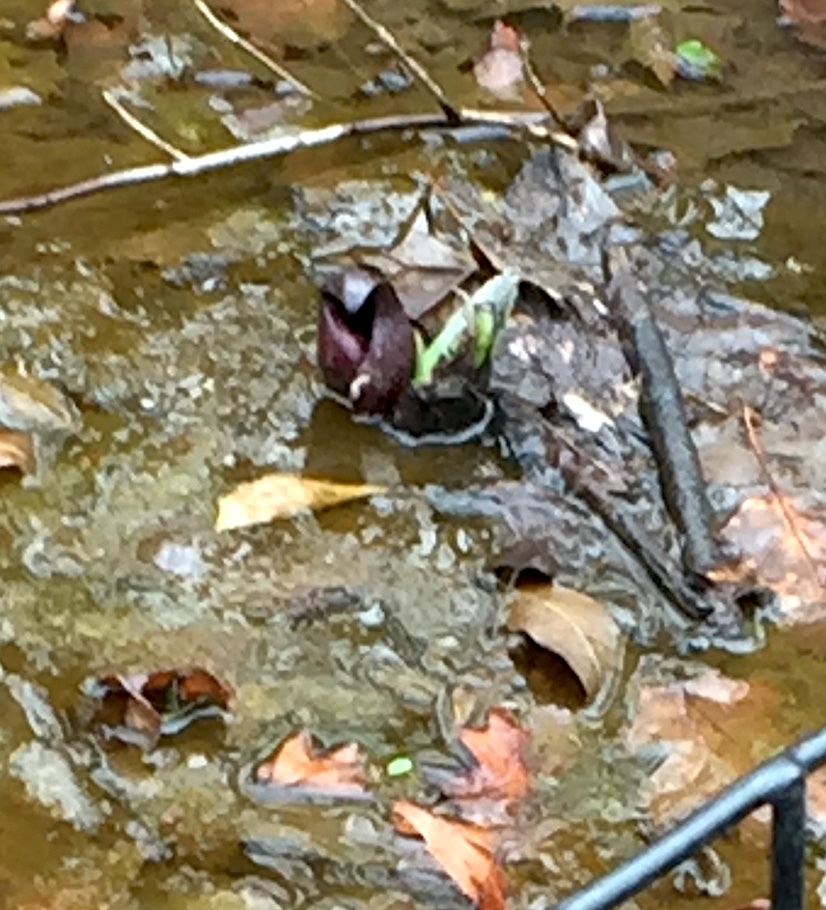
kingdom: Plantae
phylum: Tracheophyta
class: Liliopsida
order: Alismatales
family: Araceae
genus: Symplocarpus
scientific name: Symplocarpus foetidus
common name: Eastern skunk cabbage
